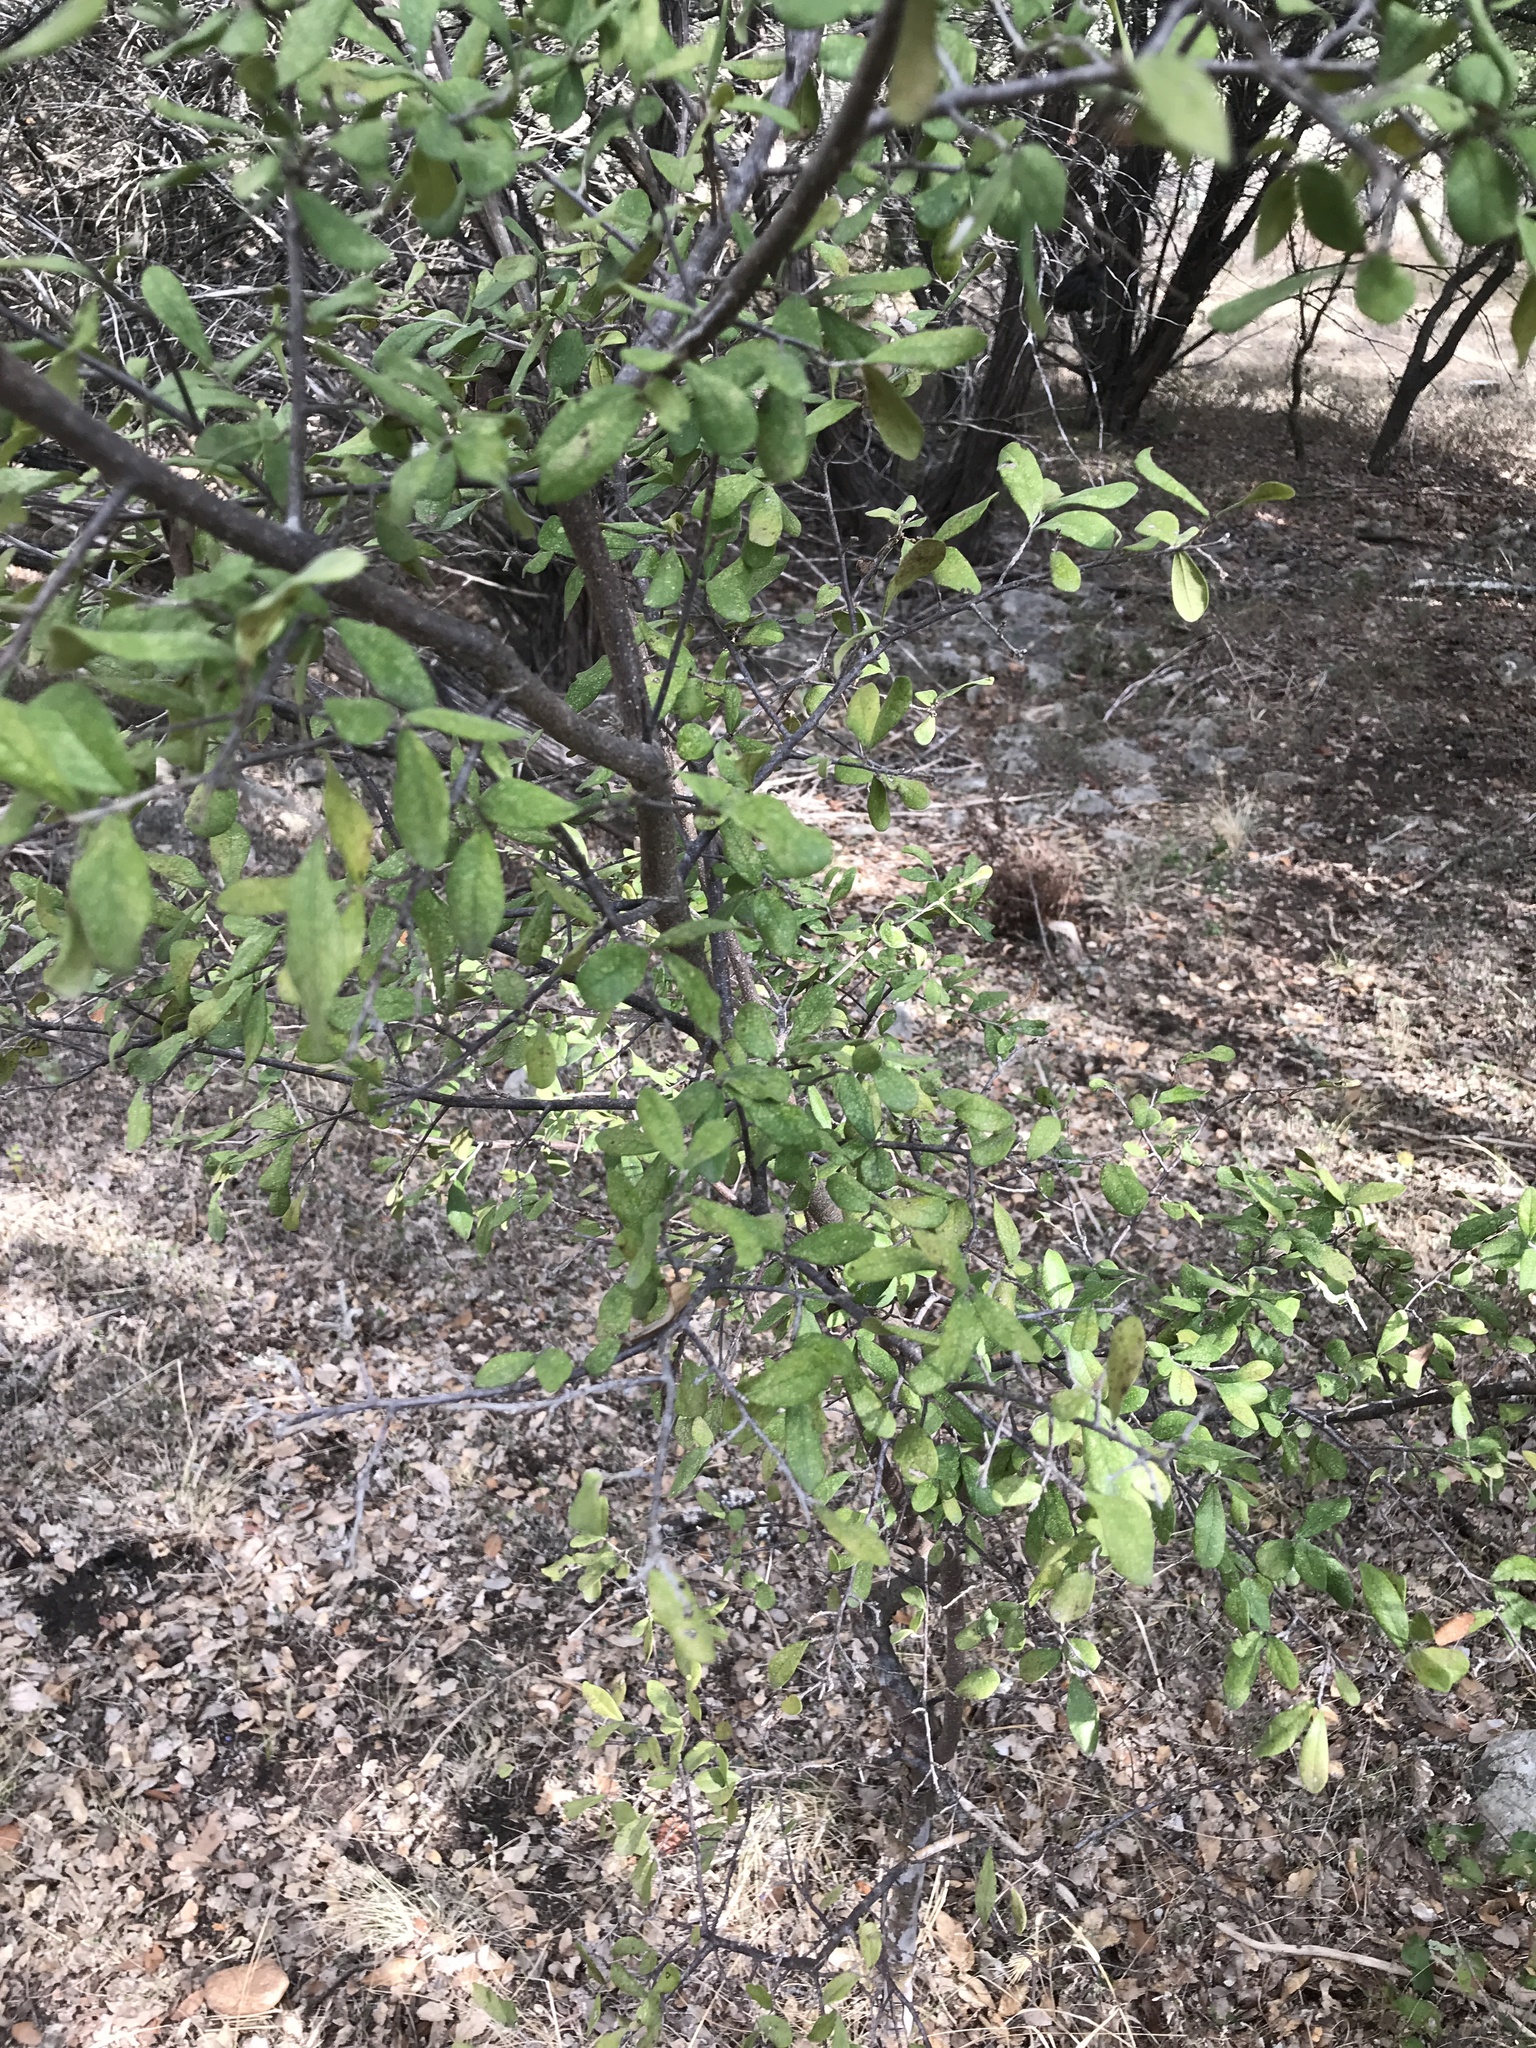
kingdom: Plantae
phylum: Tracheophyta
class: Magnoliopsida
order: Ericales
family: Ebenaceae
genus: Diospyros
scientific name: Diospyros texana
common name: Texas persimmon
